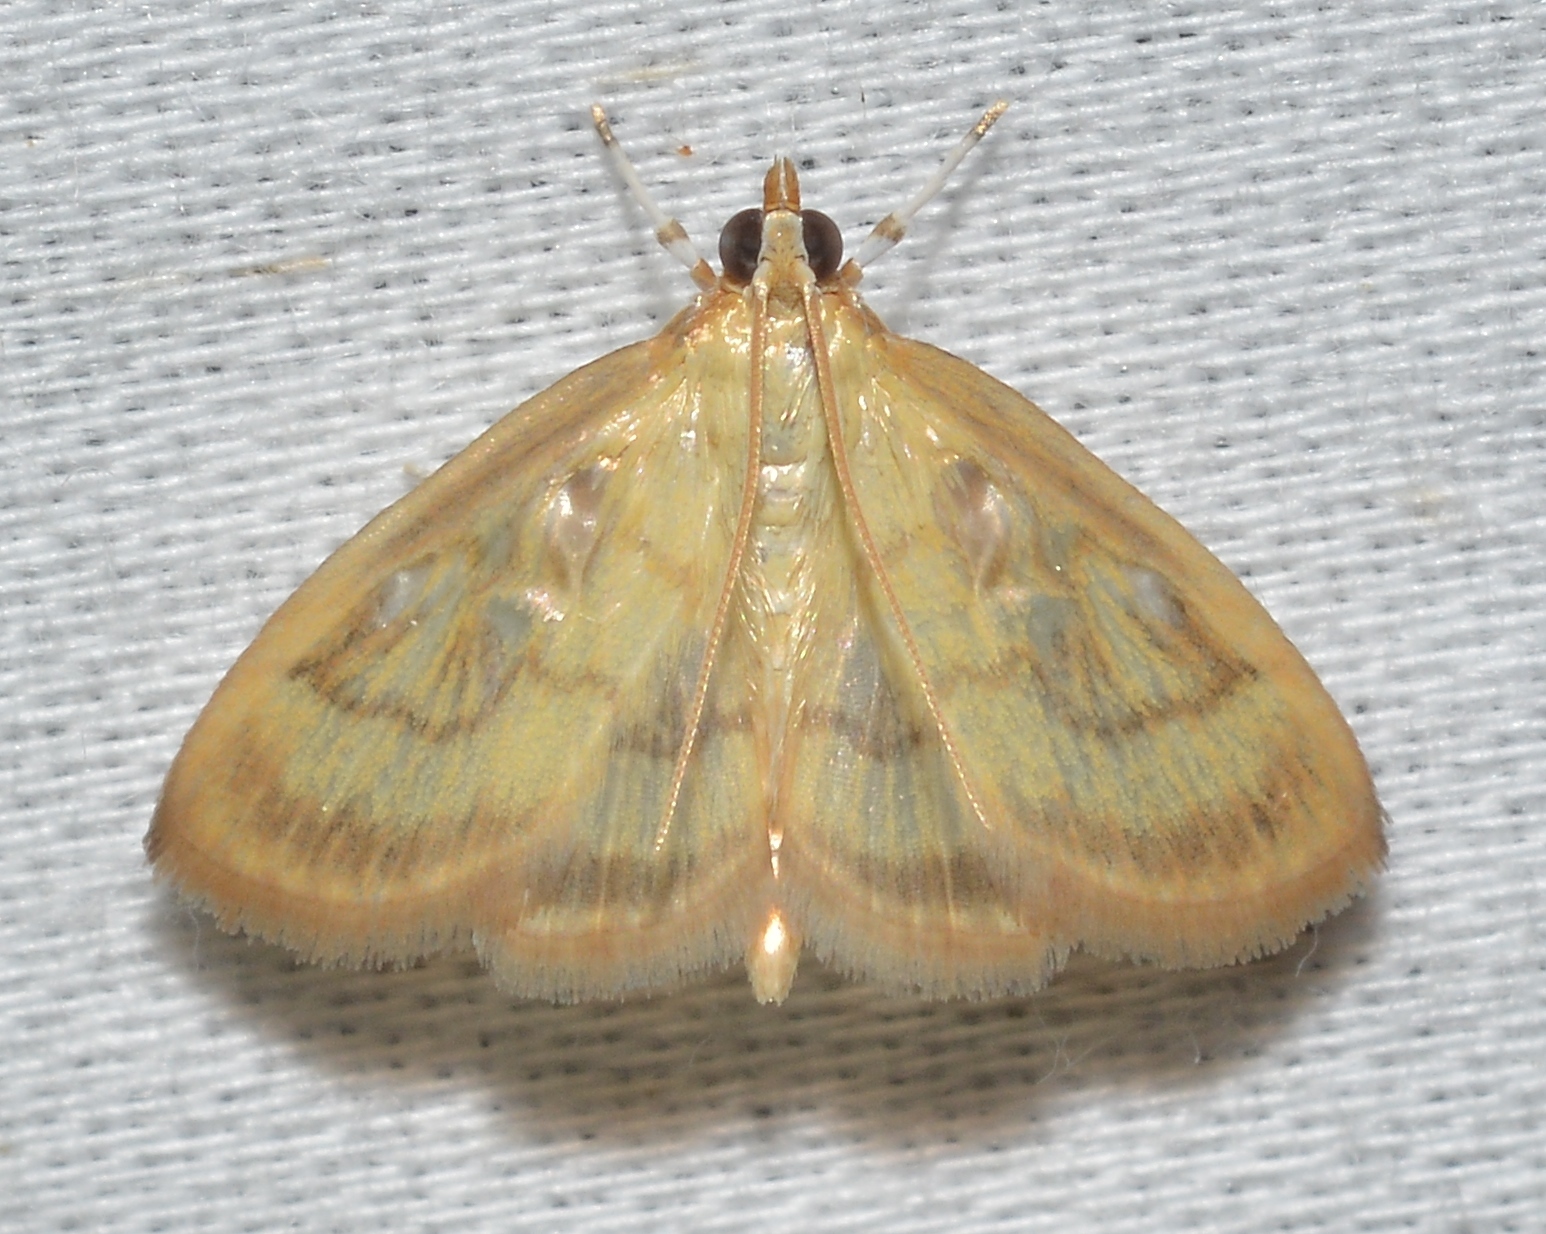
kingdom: Animalia
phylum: Arthropoda
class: Insecta
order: Lepidoptera
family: Crambidae
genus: Crocidophora
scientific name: Crocidophora tuberculalis
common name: Pale-winged crocidiphora moth
